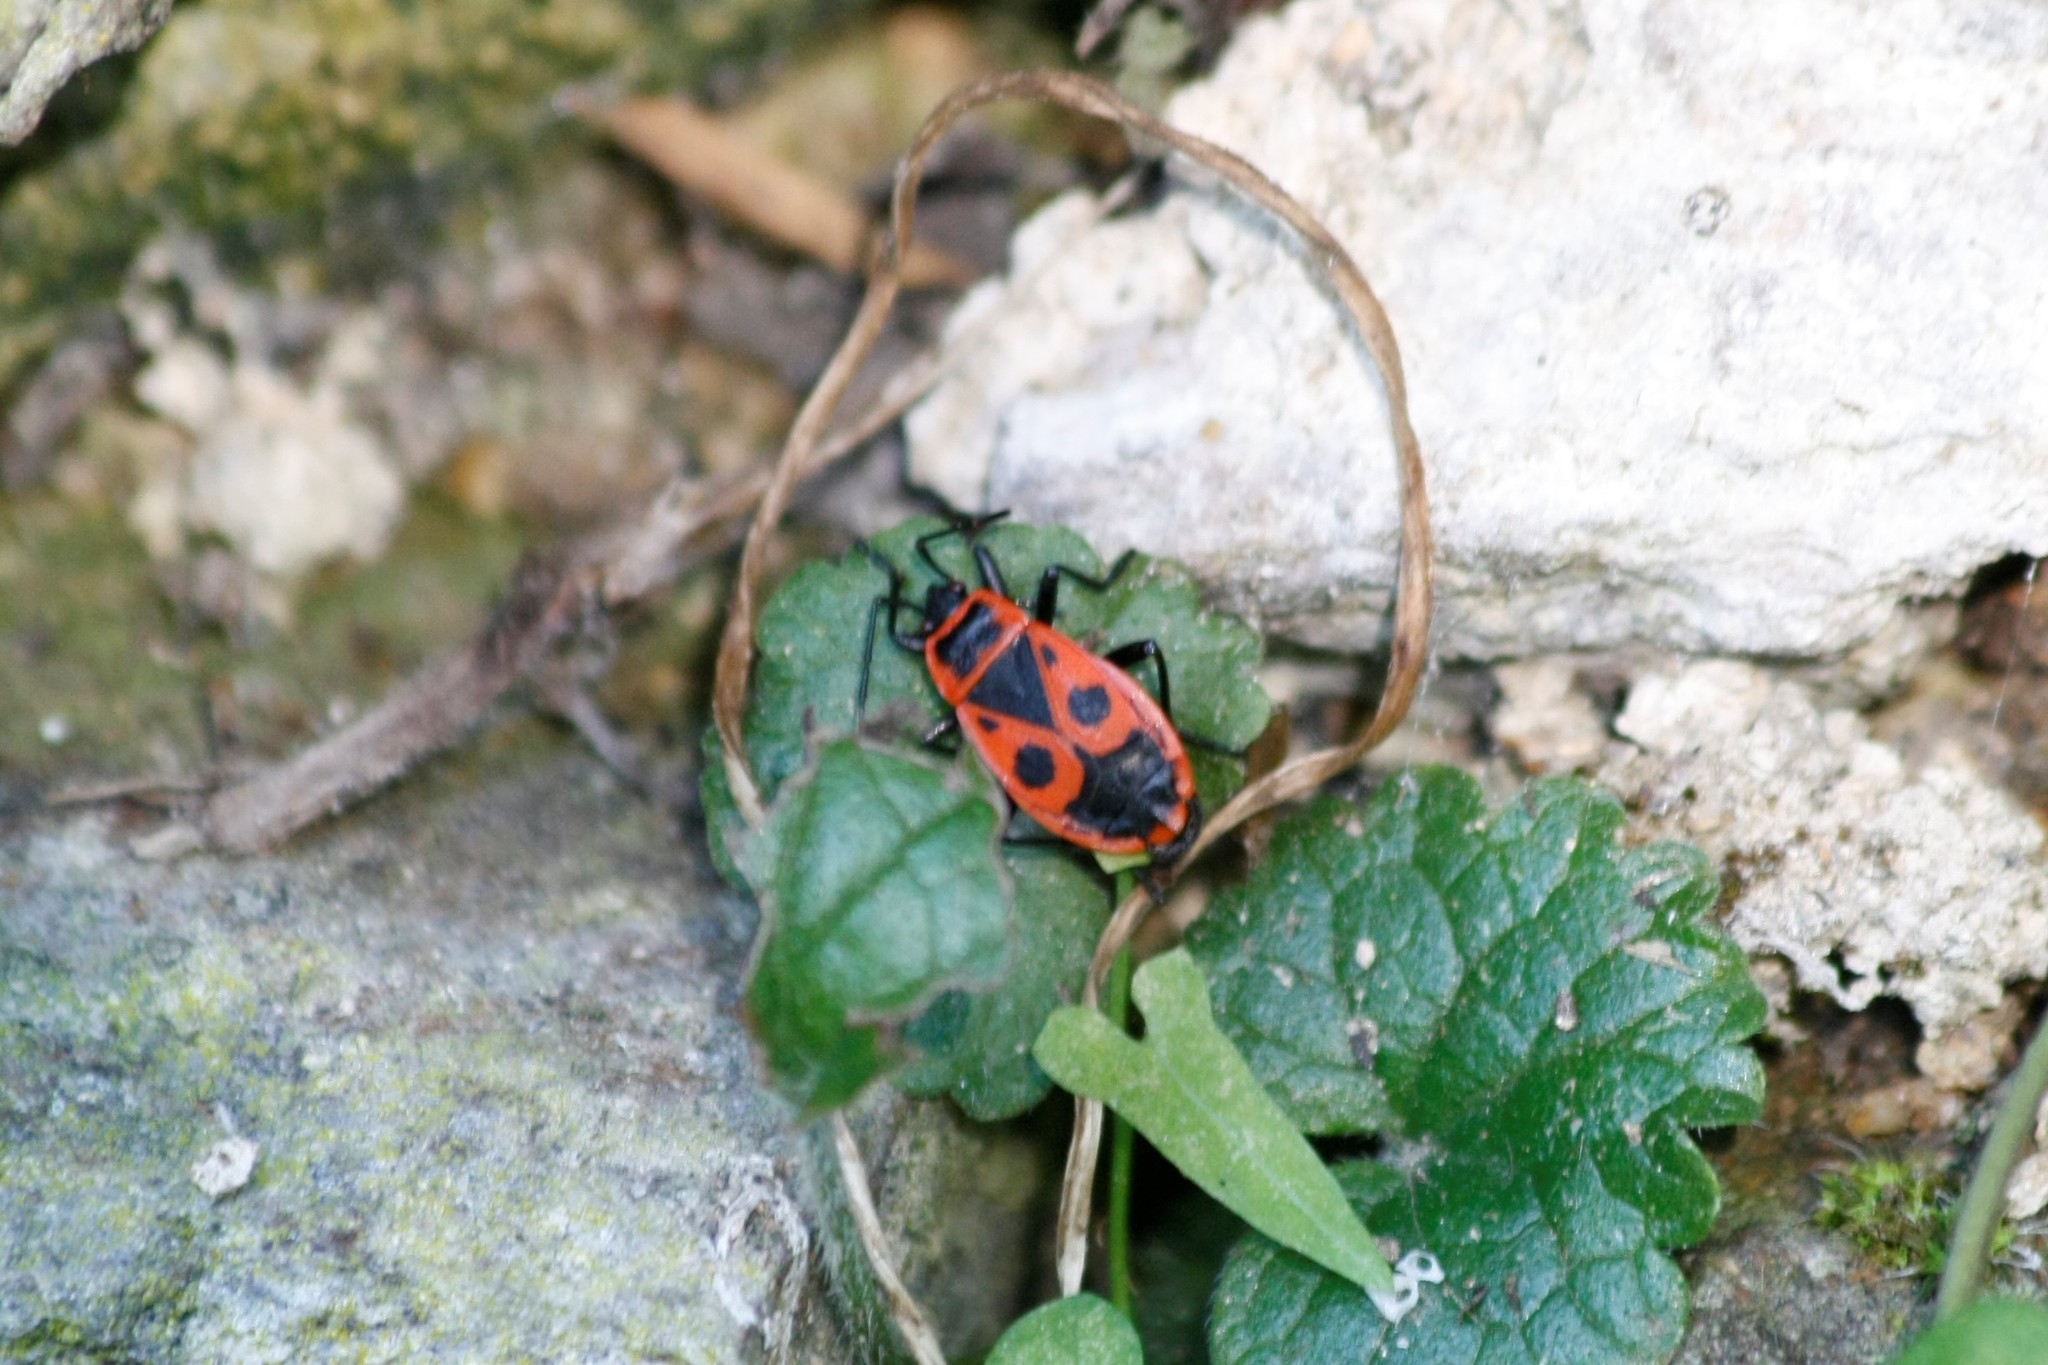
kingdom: Animalia
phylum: Arthropoda
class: Insecta
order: Hemiptera
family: Pyrrhocoridae
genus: Pyrrhocoris
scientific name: Pyrrhocoris apterus
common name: Firebug
